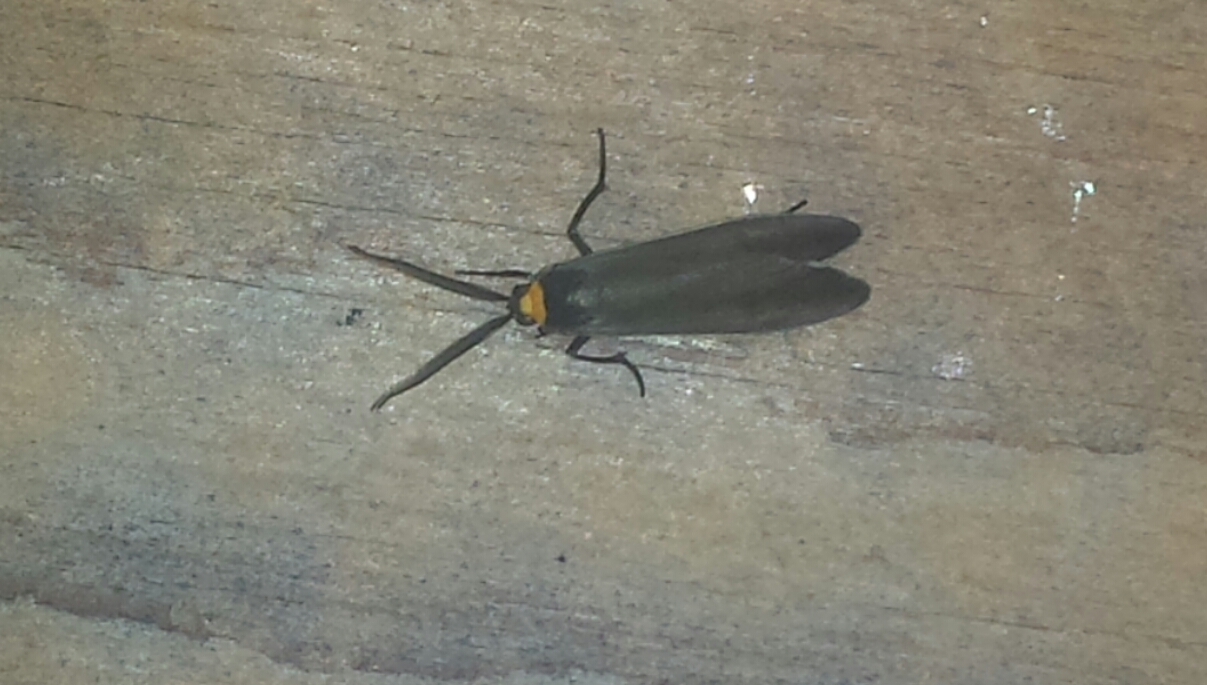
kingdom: Animalia
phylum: Arthropoda
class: Insecta
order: Lepidoptera
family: Erebidae
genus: Cisseps
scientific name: Cisseps fulvicollis
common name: Yellow-collared scape moth
